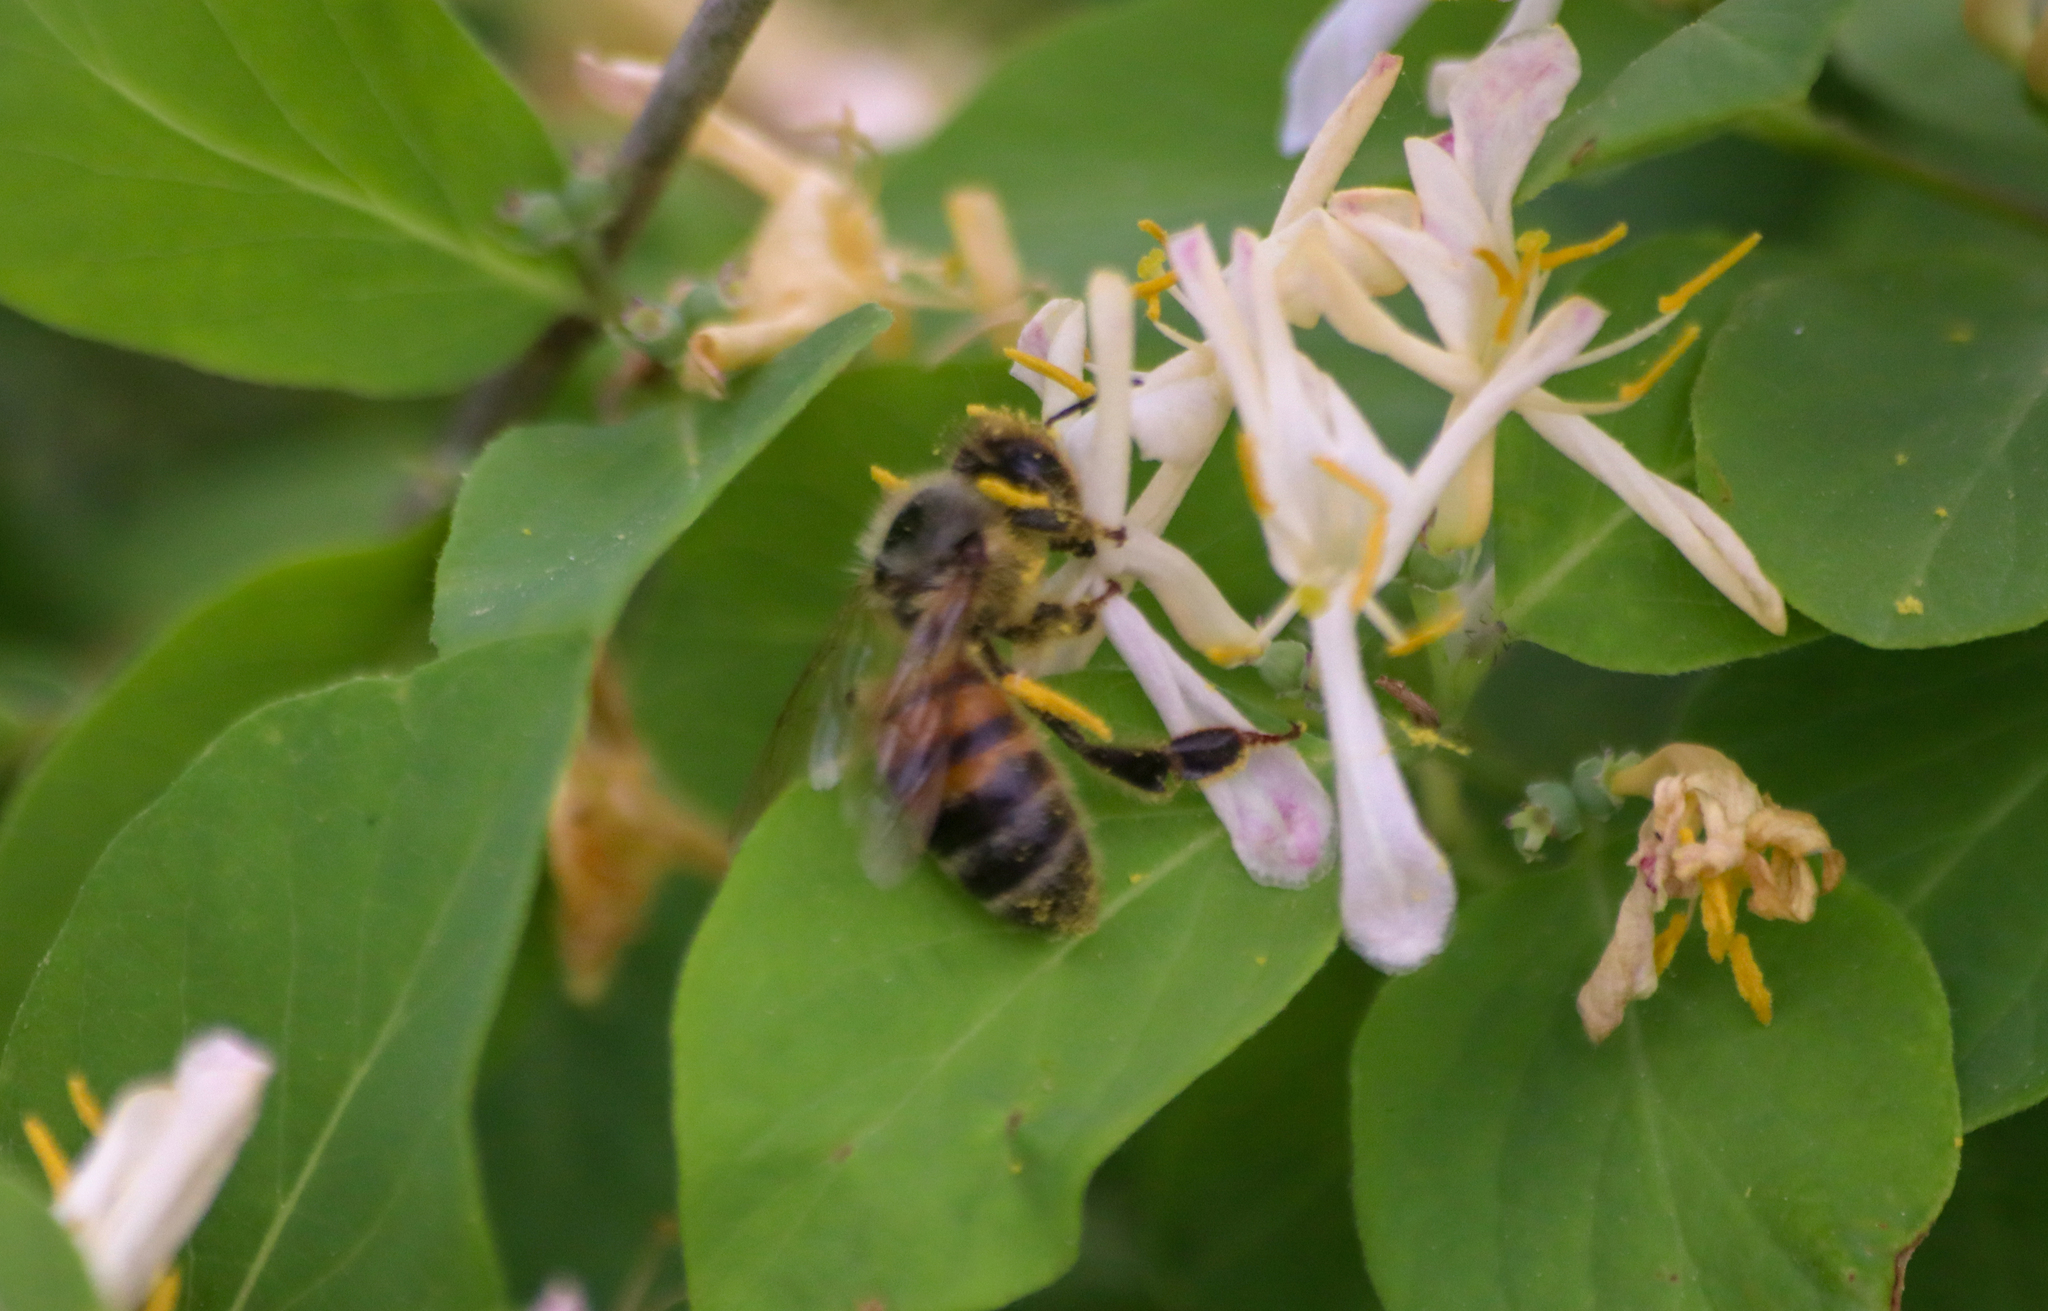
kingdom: Animalia
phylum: Arthropoda
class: Insecta
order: Hymenoptera
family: Apidae
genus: Apis
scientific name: Apis mellifera
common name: Honey bee
